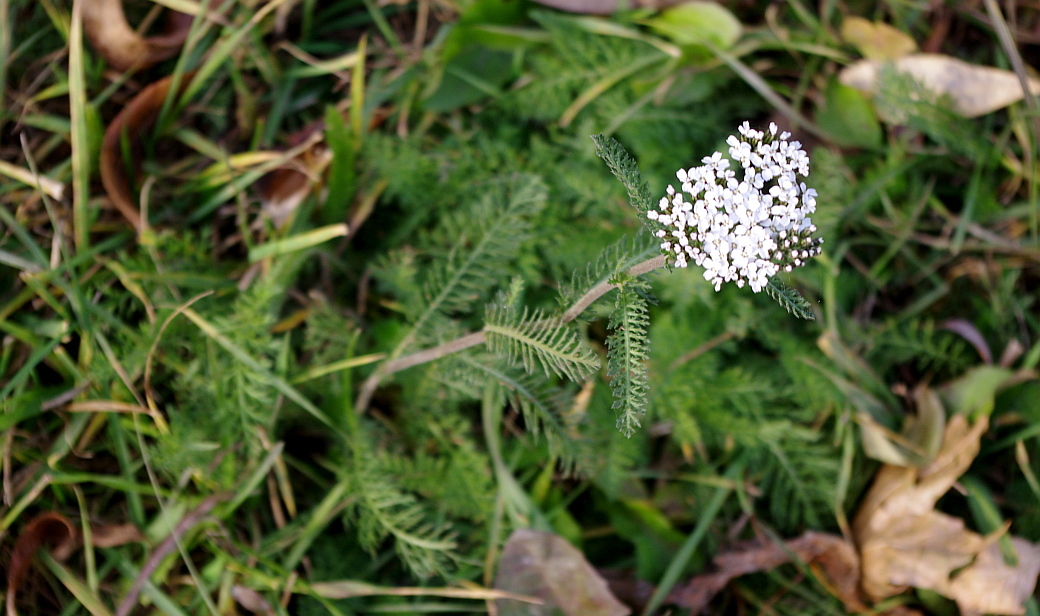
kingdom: Plantae
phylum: Tracheophyta
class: Magnoliopsida
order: Asterales
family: Asteraceae
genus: Achillea
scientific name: Achillea millefolium
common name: Yarrow
